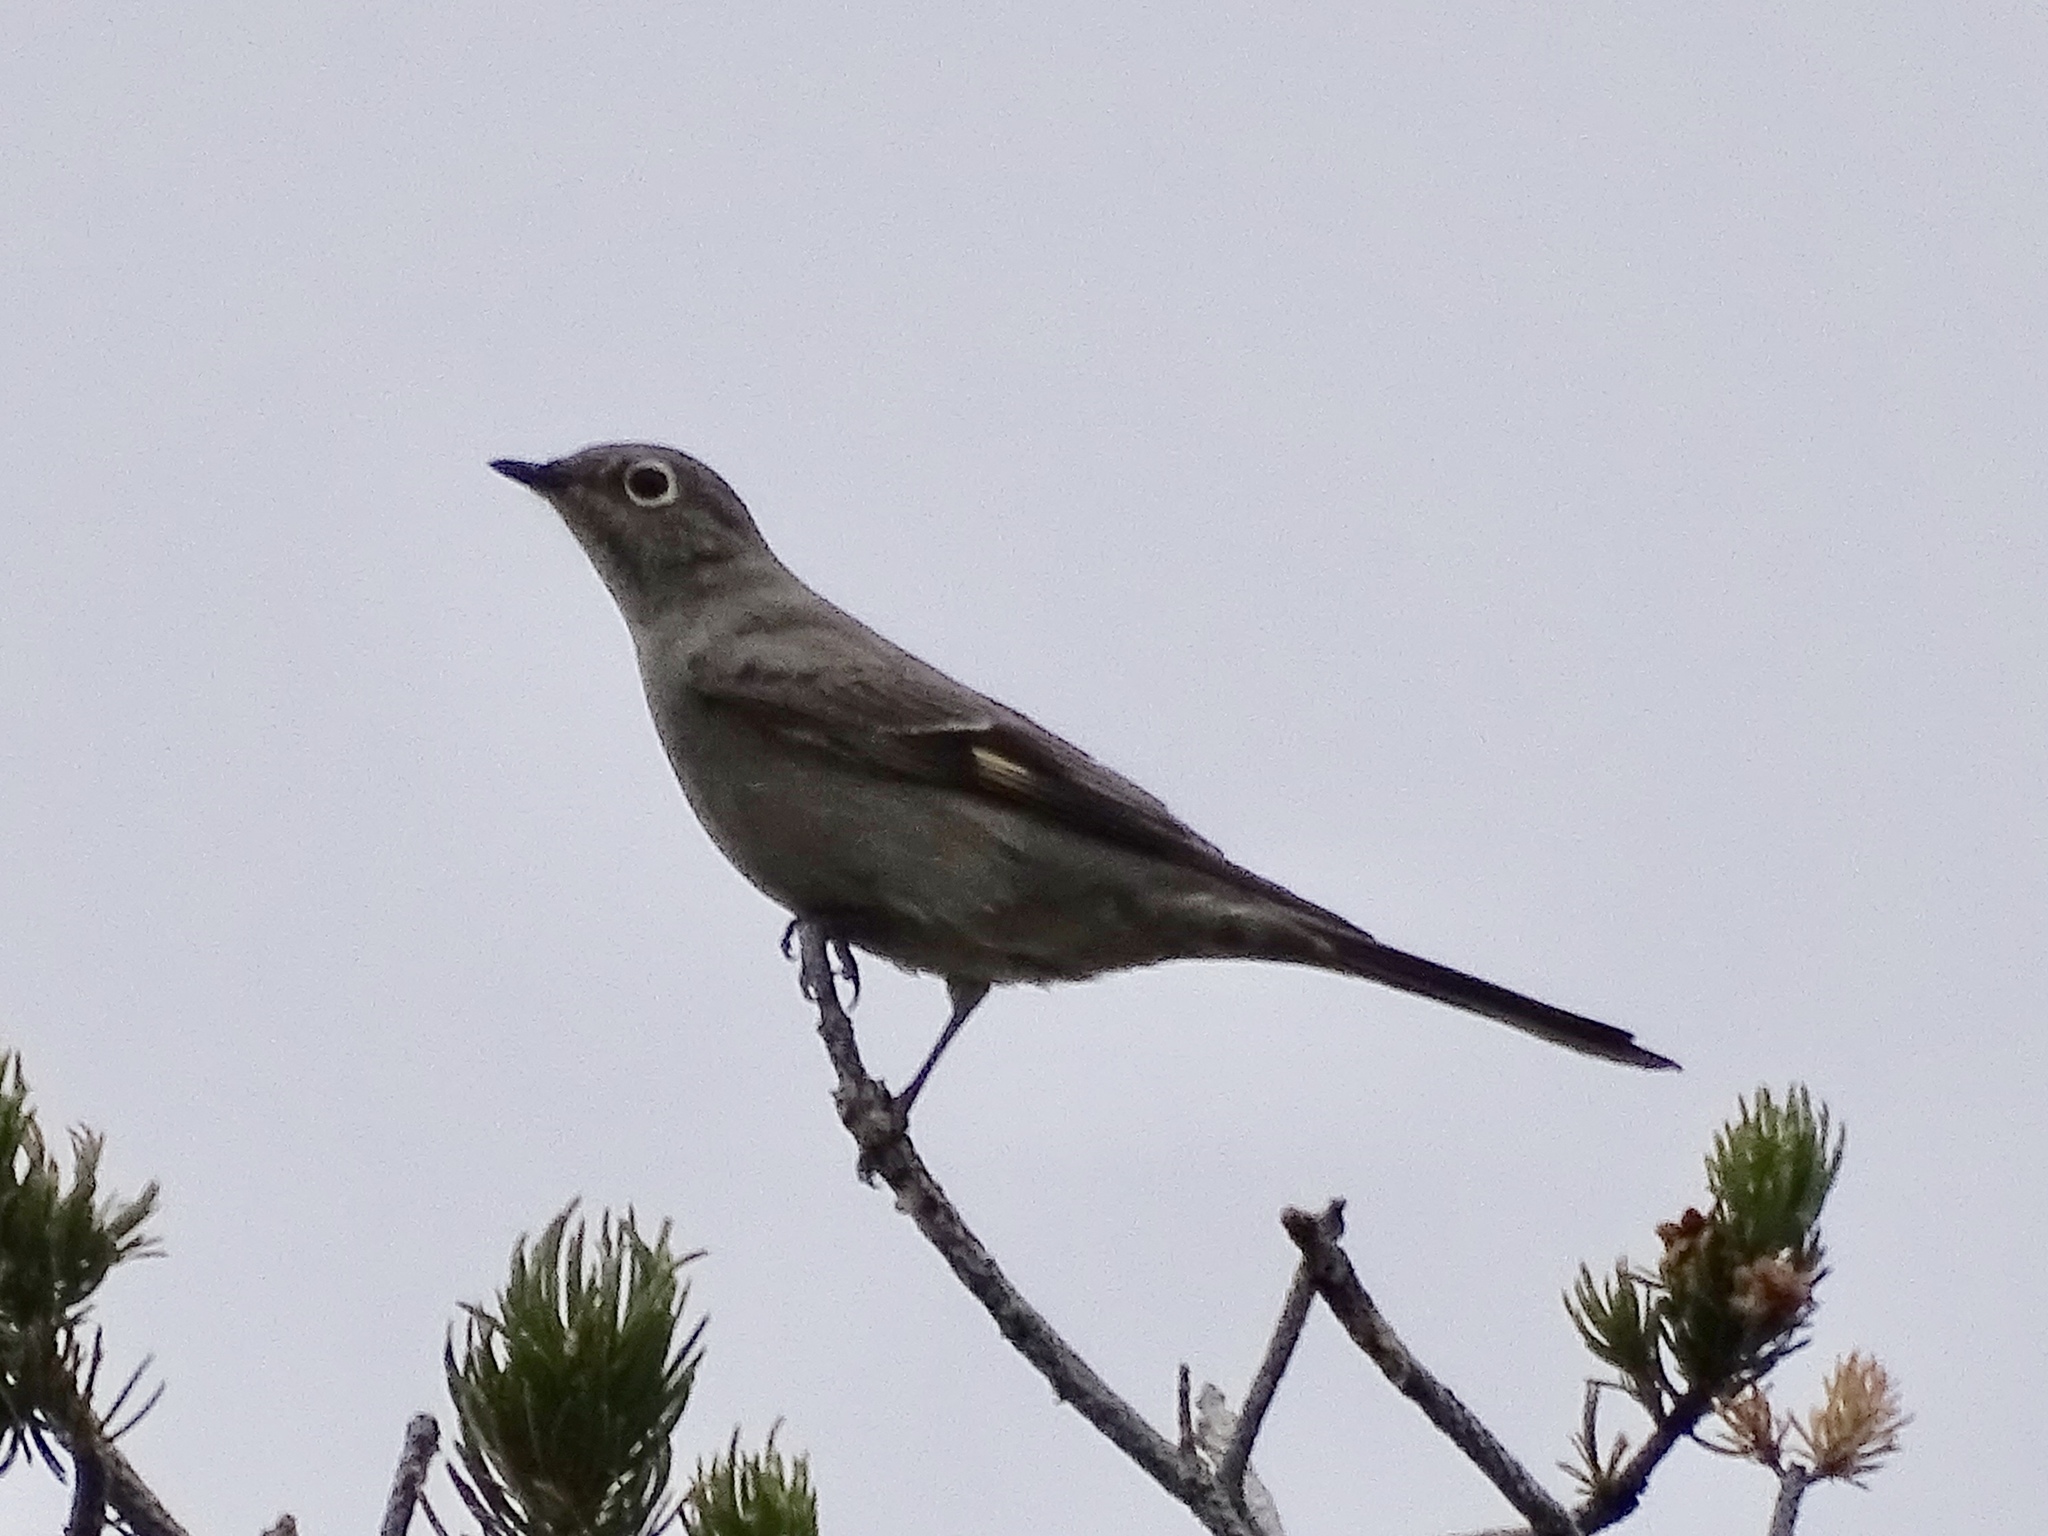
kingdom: Animalia
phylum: Chordata
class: Aves
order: Passeriformes
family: Turdidae
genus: Myadestes
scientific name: Myadestes townsendi
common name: Townsend's solitaire
